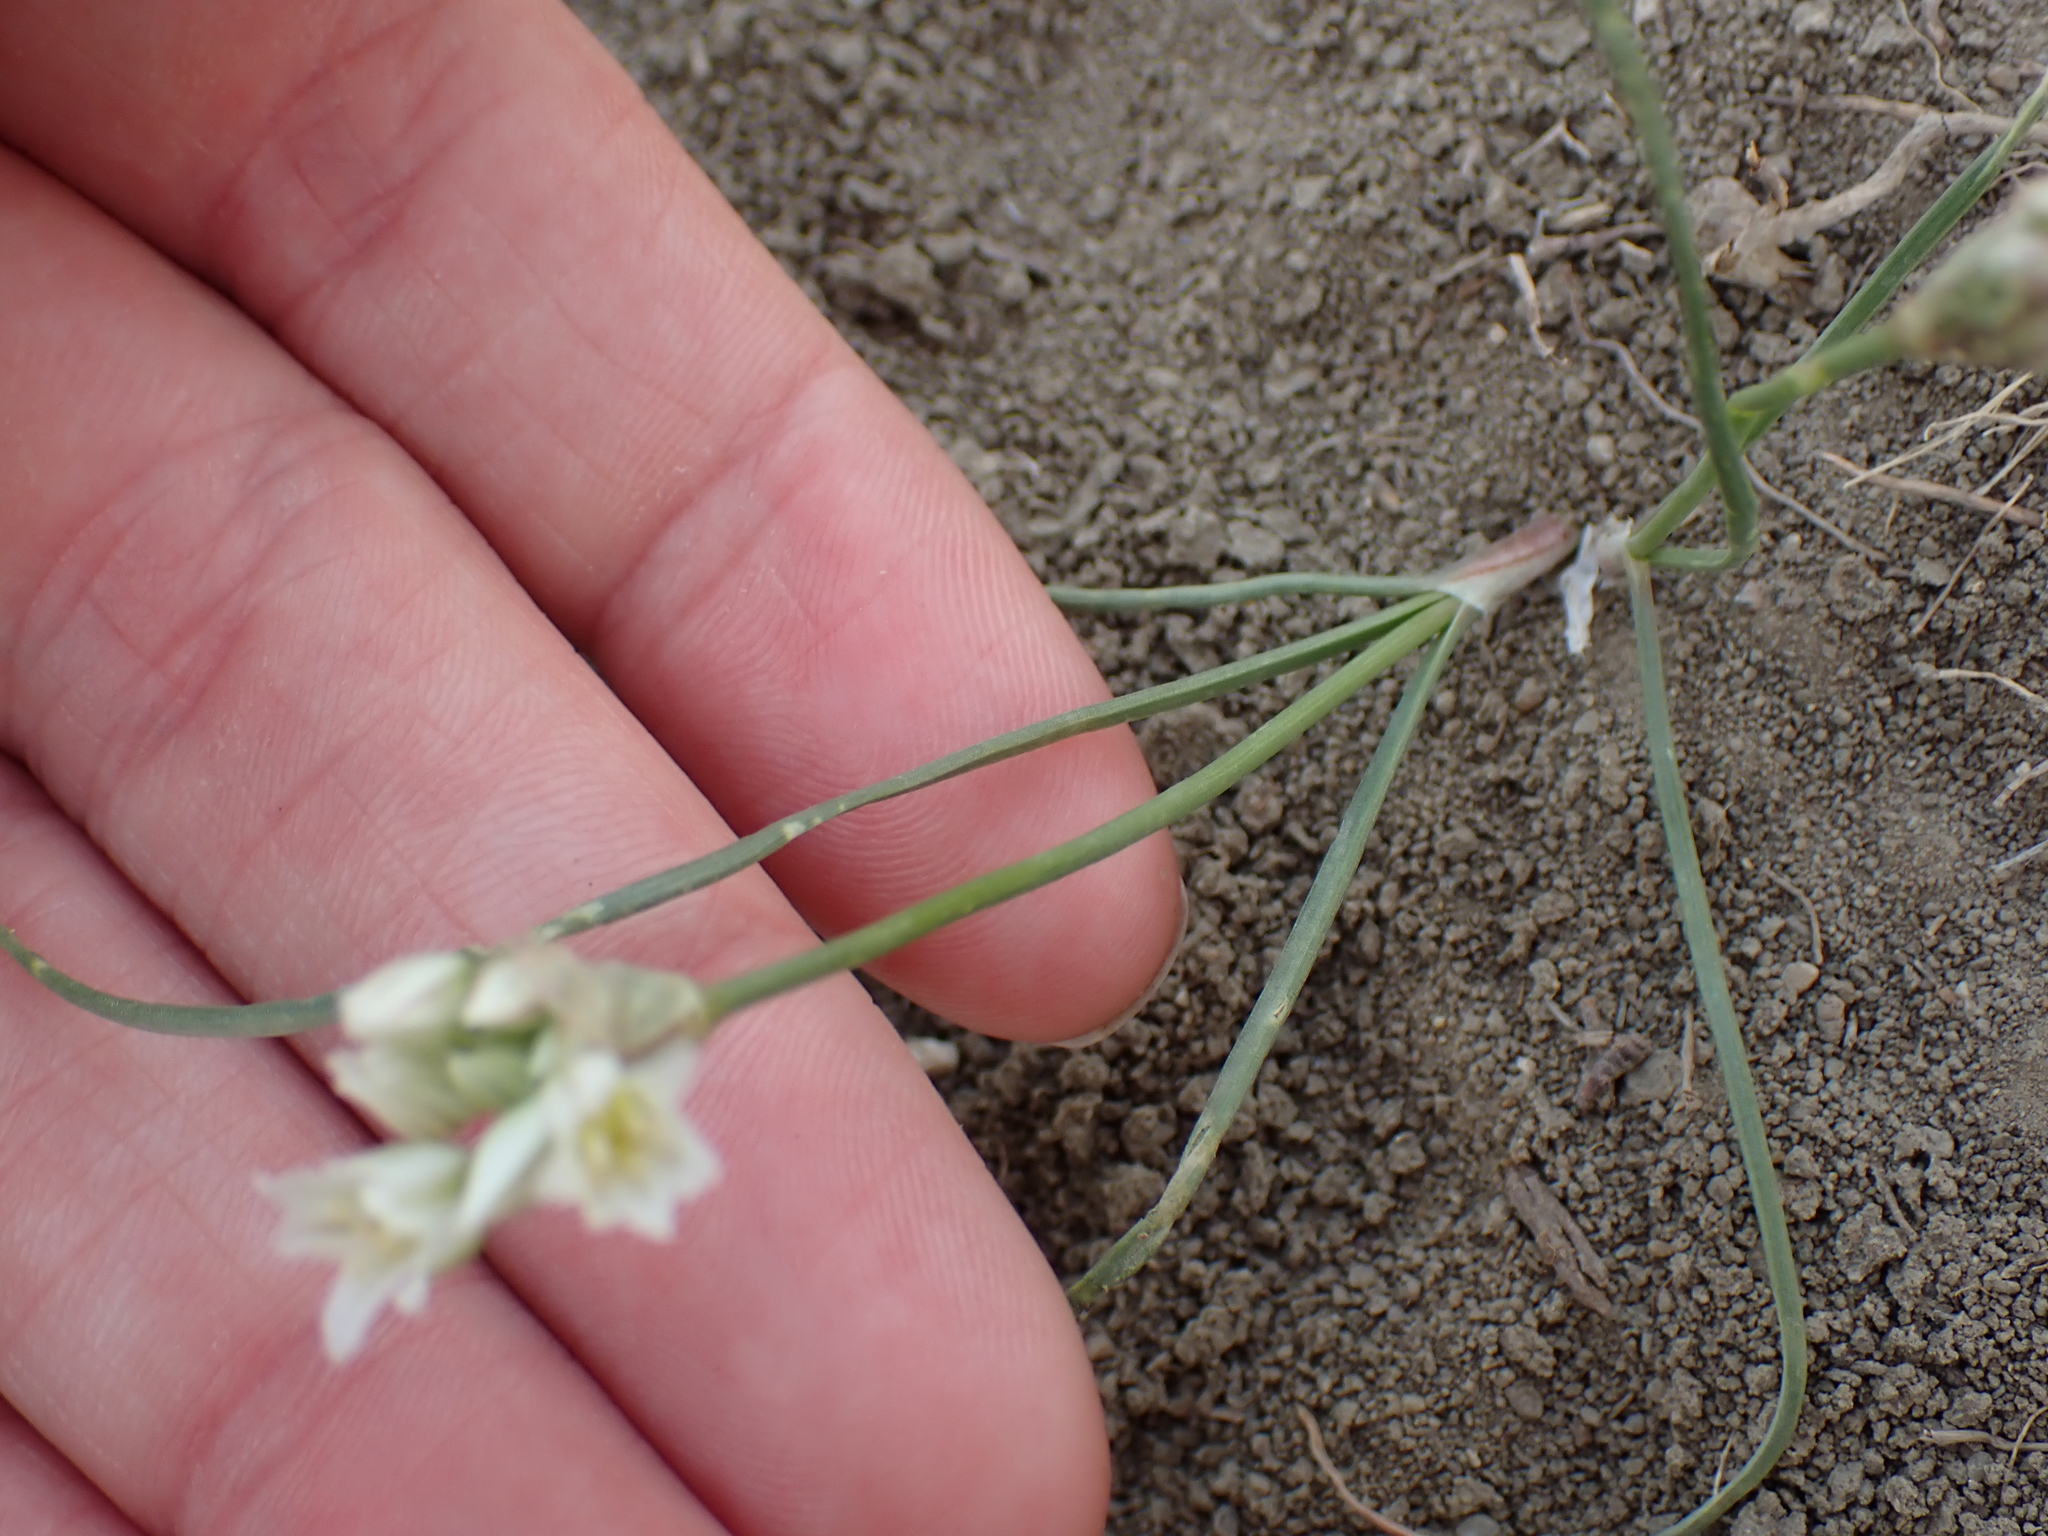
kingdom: Plantae
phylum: Tracheophyta
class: Liliopsida
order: Asparagales
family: Amaryllidaceae
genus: Allium
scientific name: Allium textile
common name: Prairie onion
